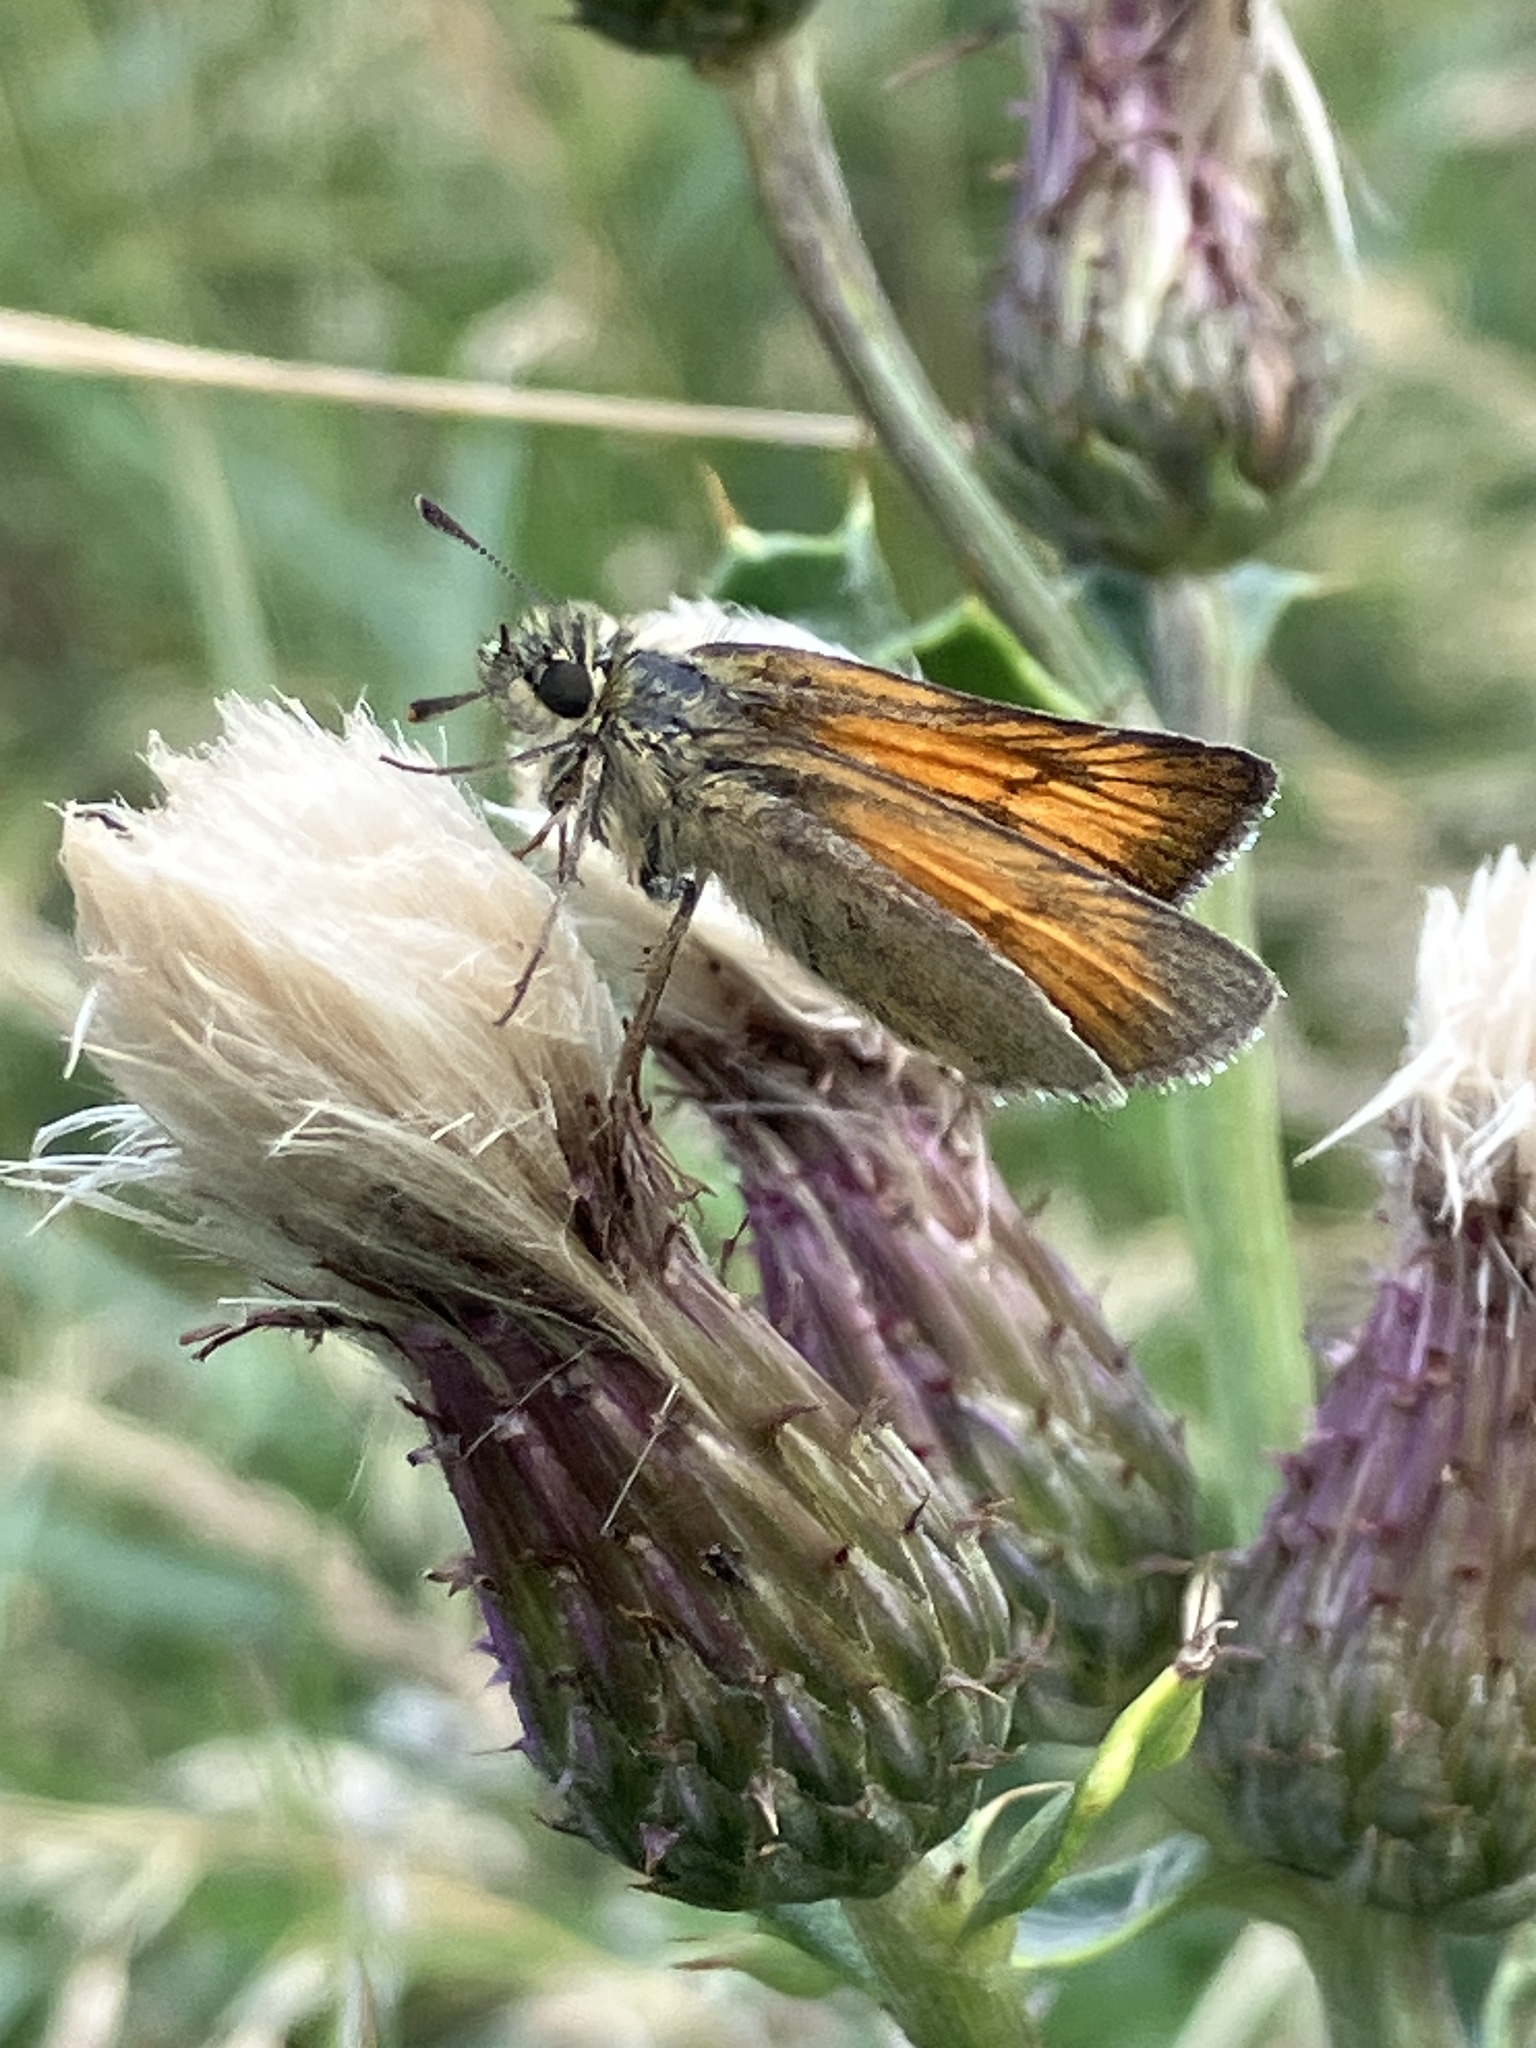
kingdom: Animalia
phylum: Arthropoda
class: Insecta
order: Lepidoptera
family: Hesperiidae
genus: Thymelicus
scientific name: Thymelicus sylvestris
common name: Small skipper
